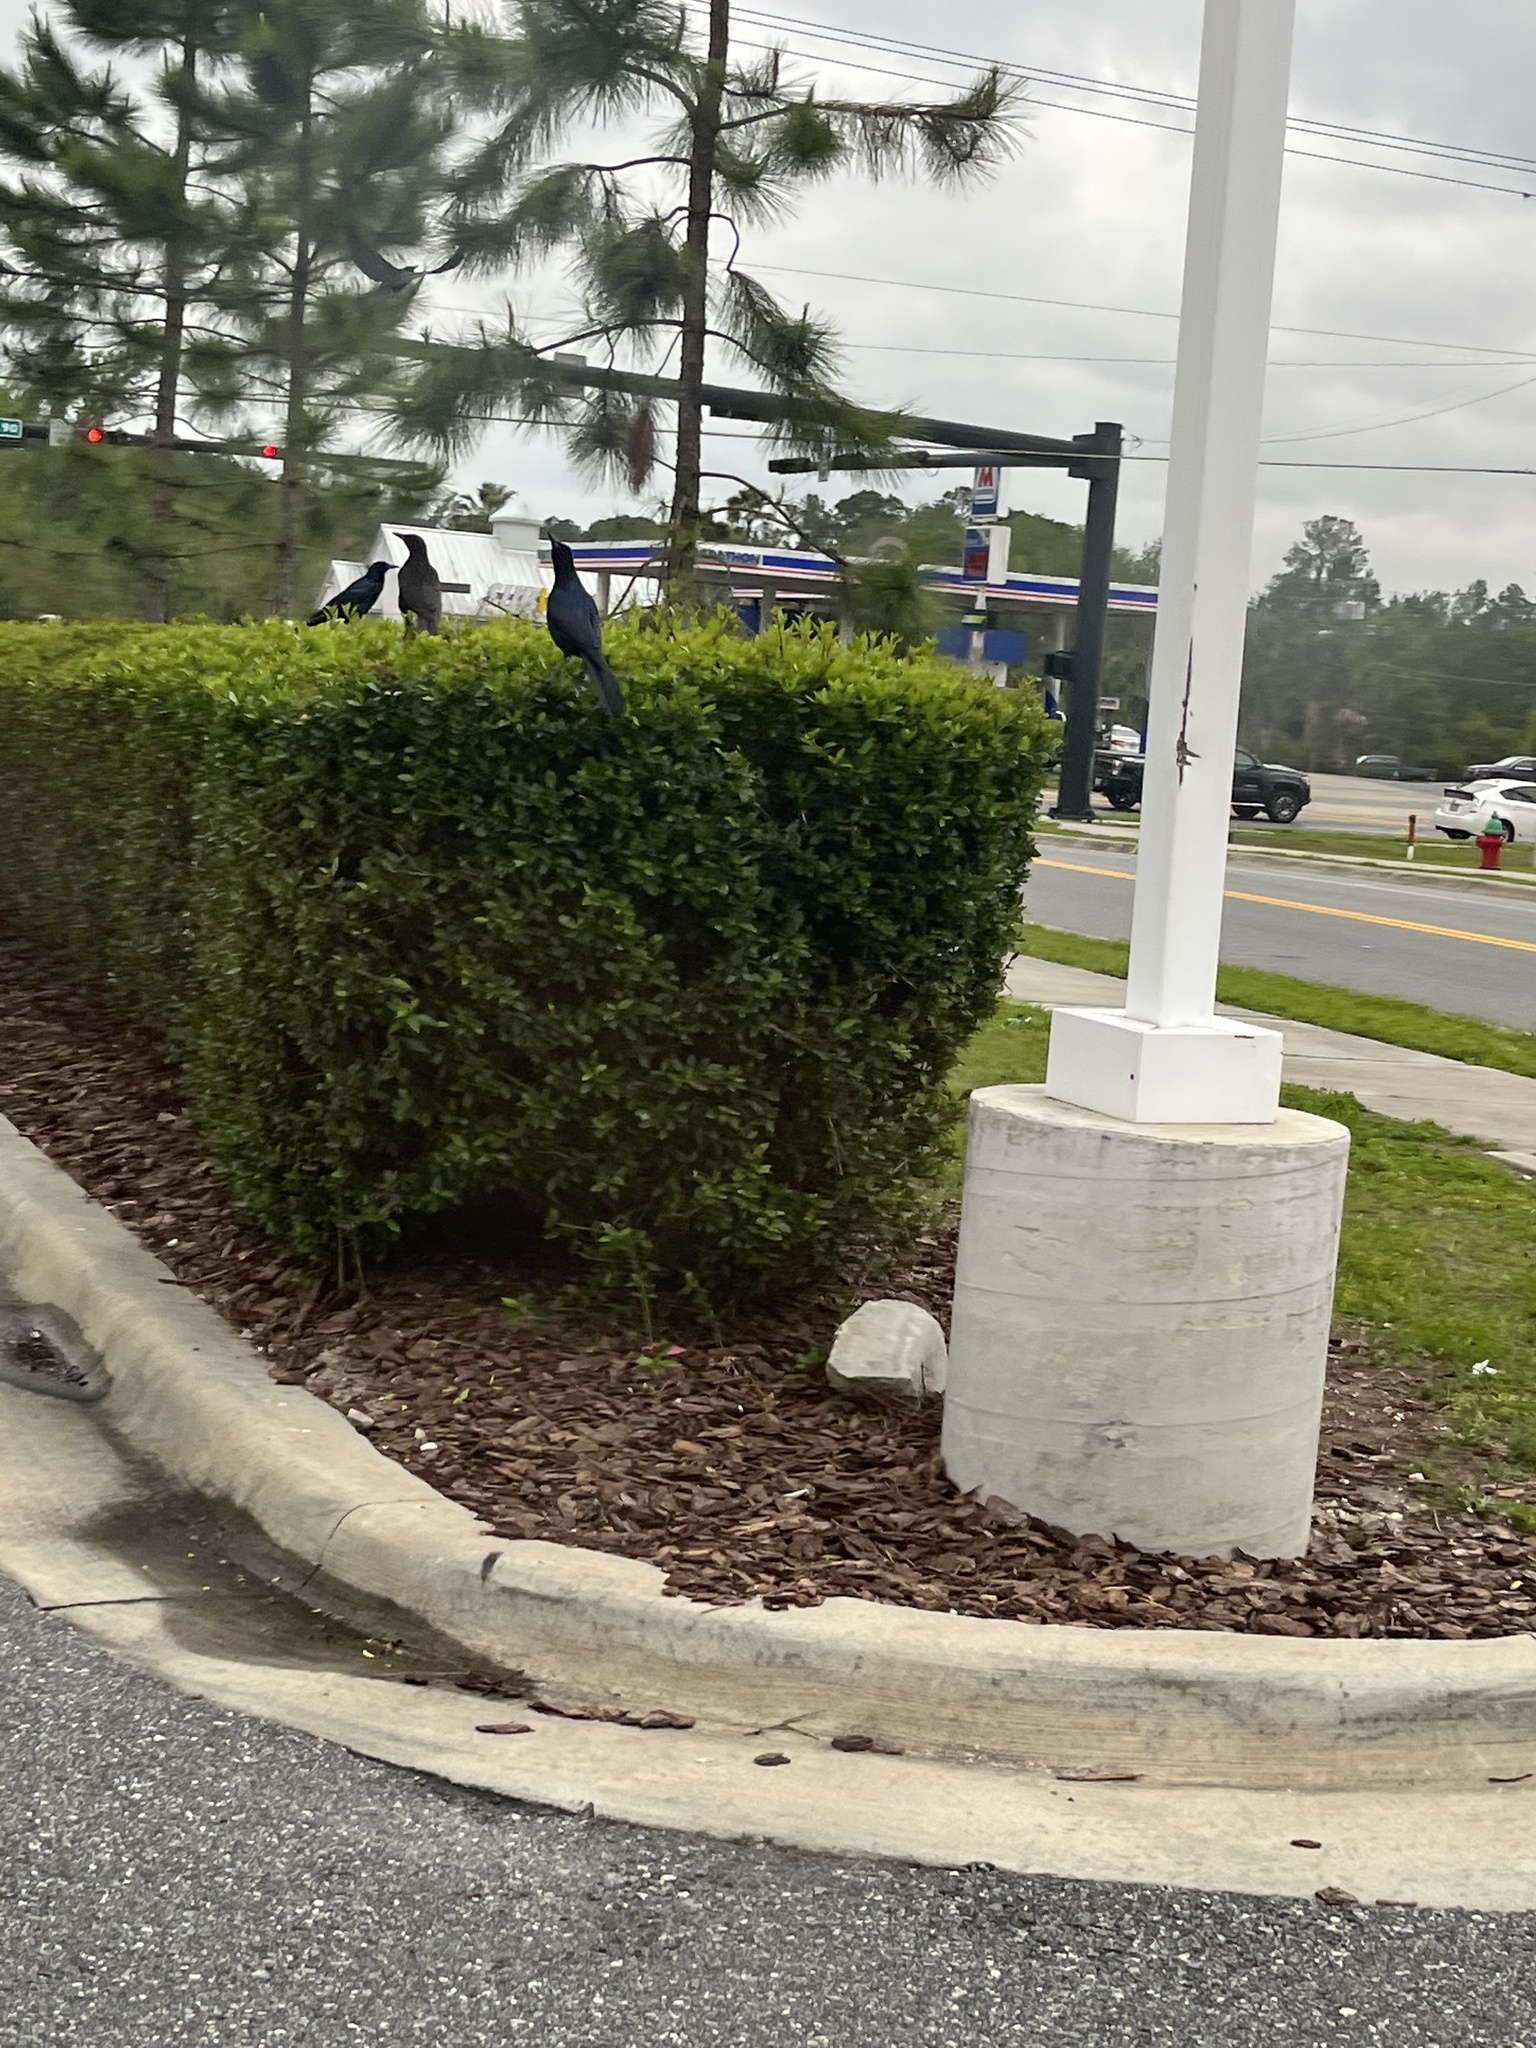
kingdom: Animalia
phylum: Chordata
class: Aves
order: Passeriformes
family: Icteridae
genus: Quiscalus
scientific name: Quiscalus major
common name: Boat-tailed grackle
